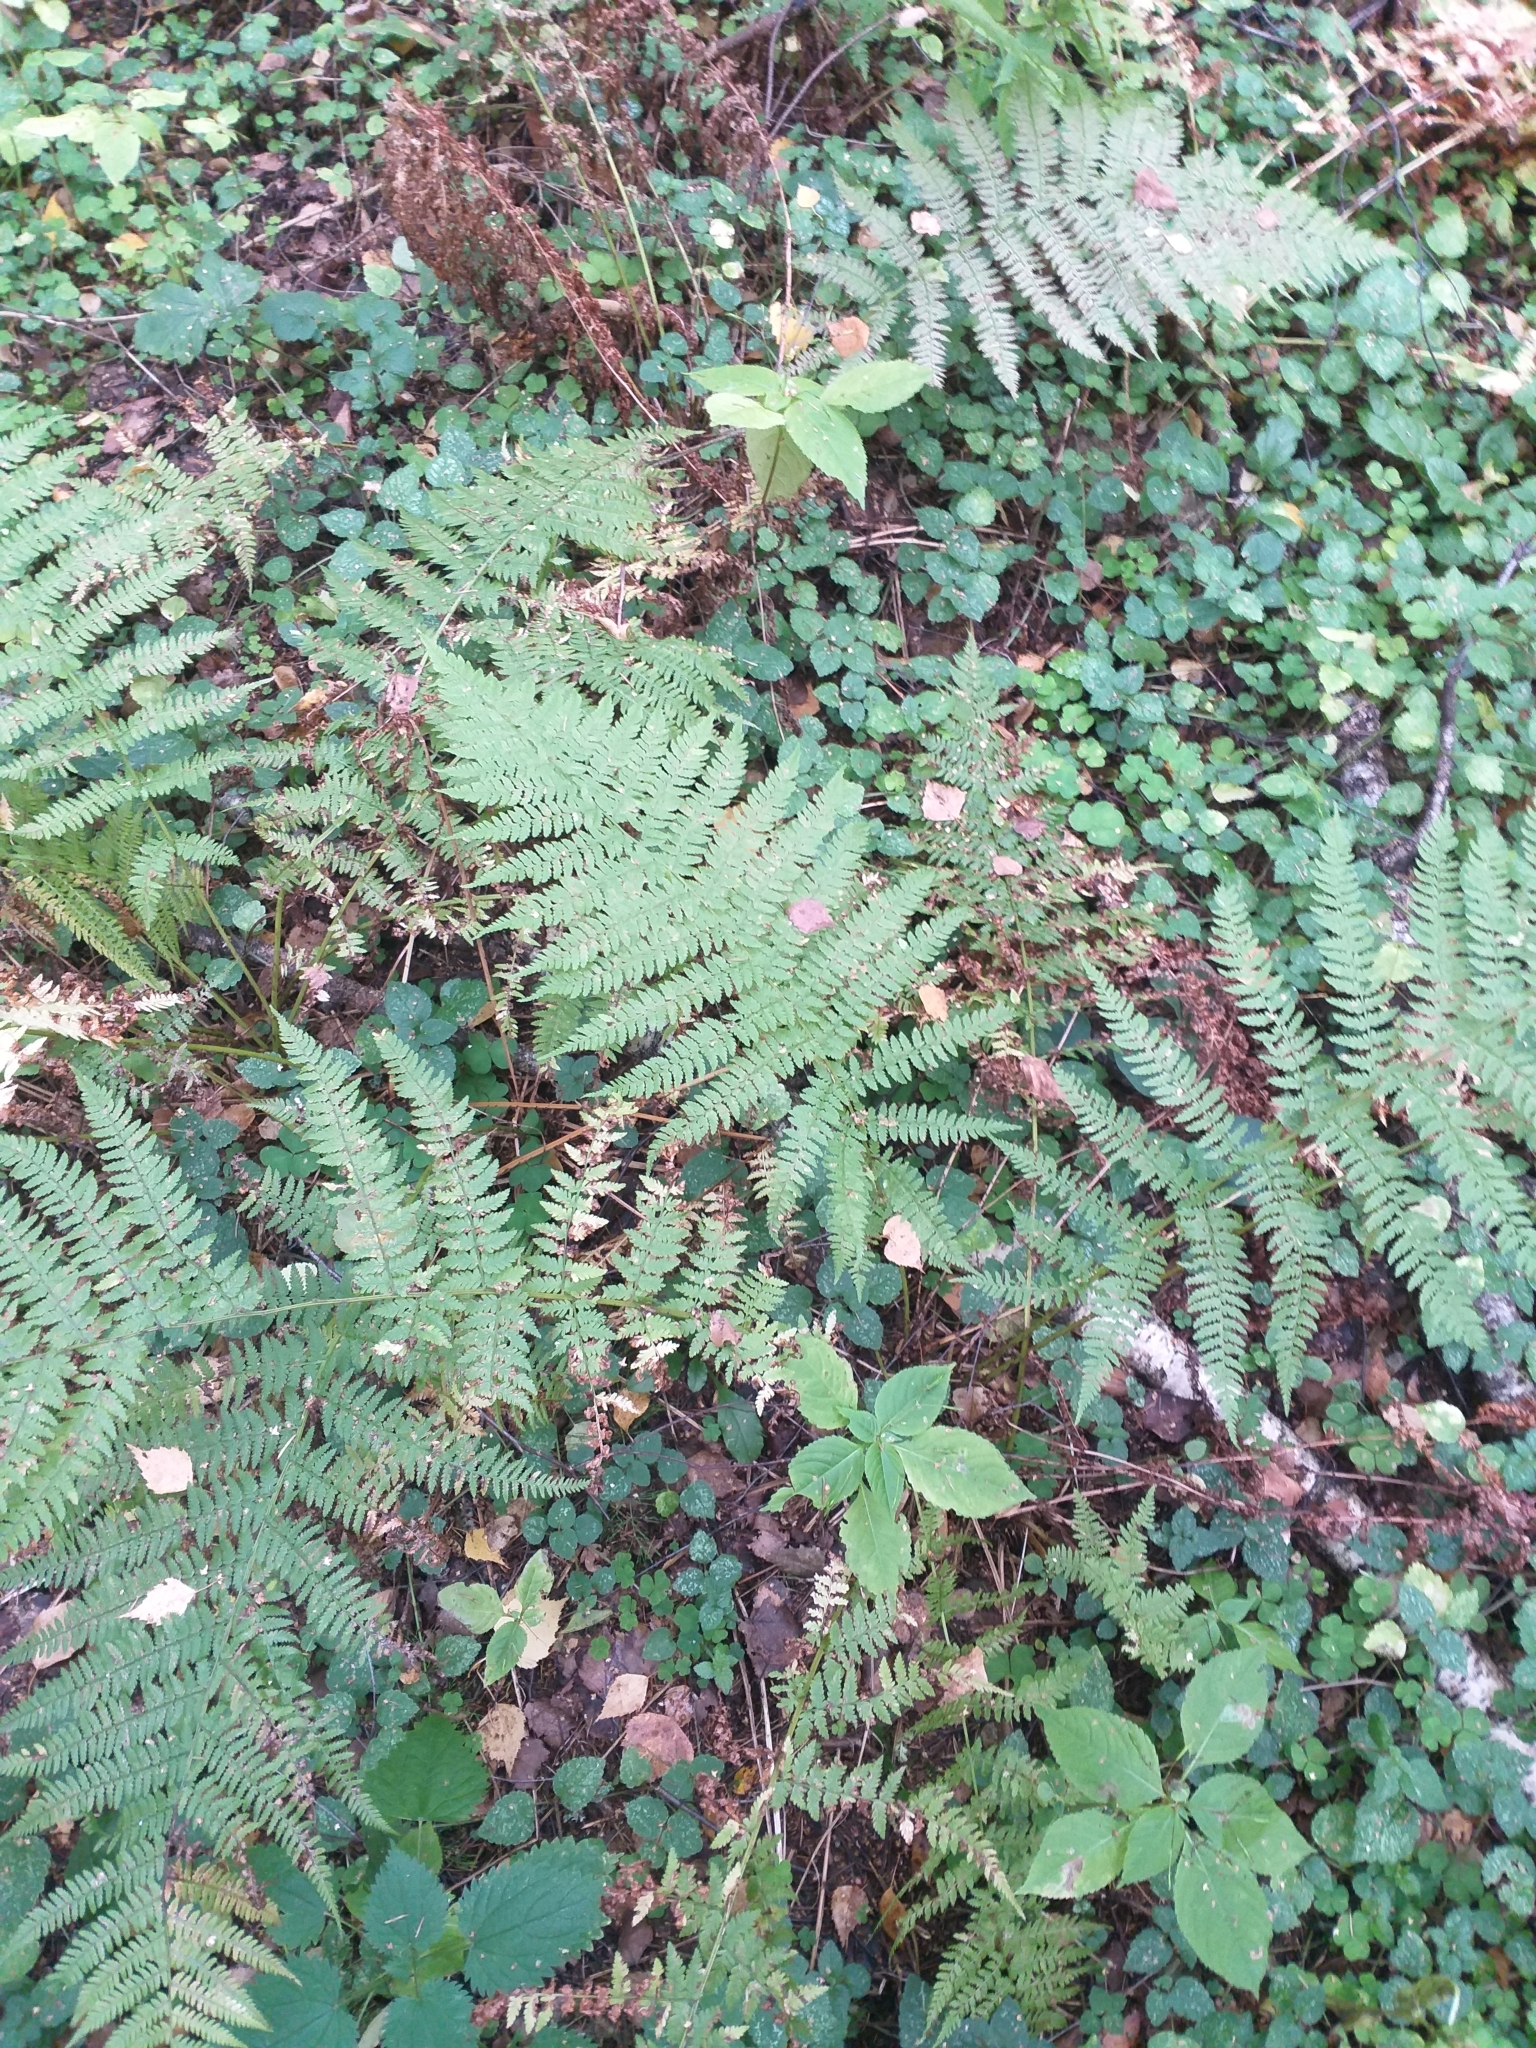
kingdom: Plantae
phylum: Tracheophyta
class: Polypodiopsida
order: Polypodiales
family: Athyriaceae
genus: Athyrium
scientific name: Athyrium filix-femina
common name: Lady fern
